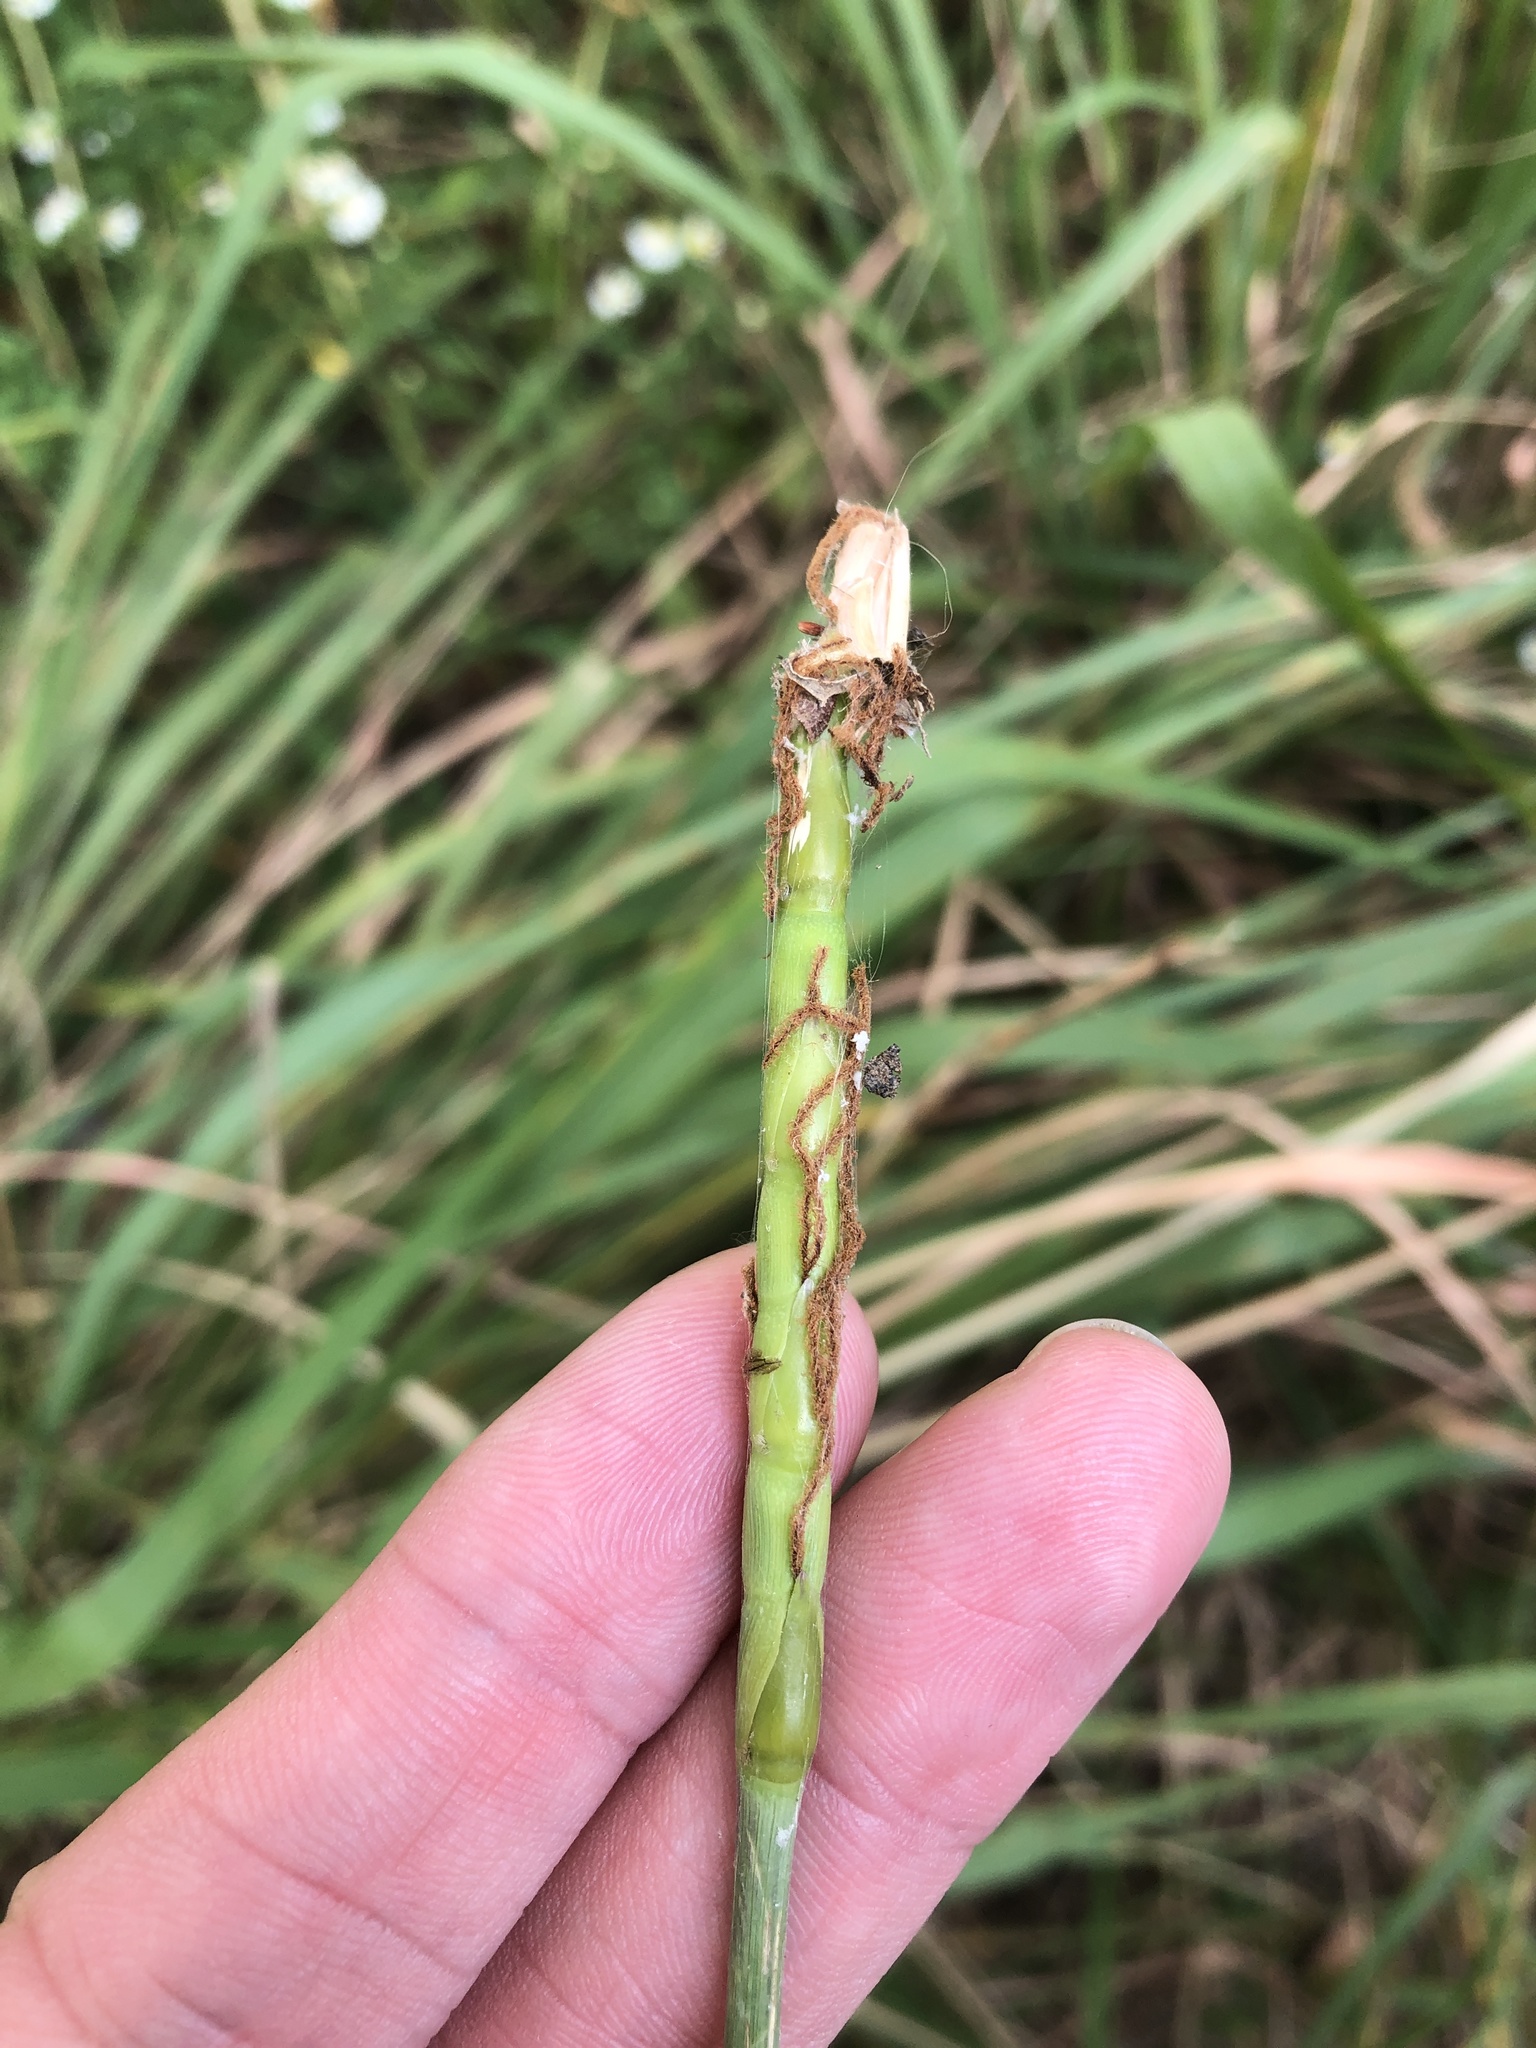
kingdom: Plantae
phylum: Tracheophyta
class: Liliopsida
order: Poales
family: Poaceae
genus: Tripsacum
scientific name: Tripsacum dactyloides
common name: Buffalo-grass
